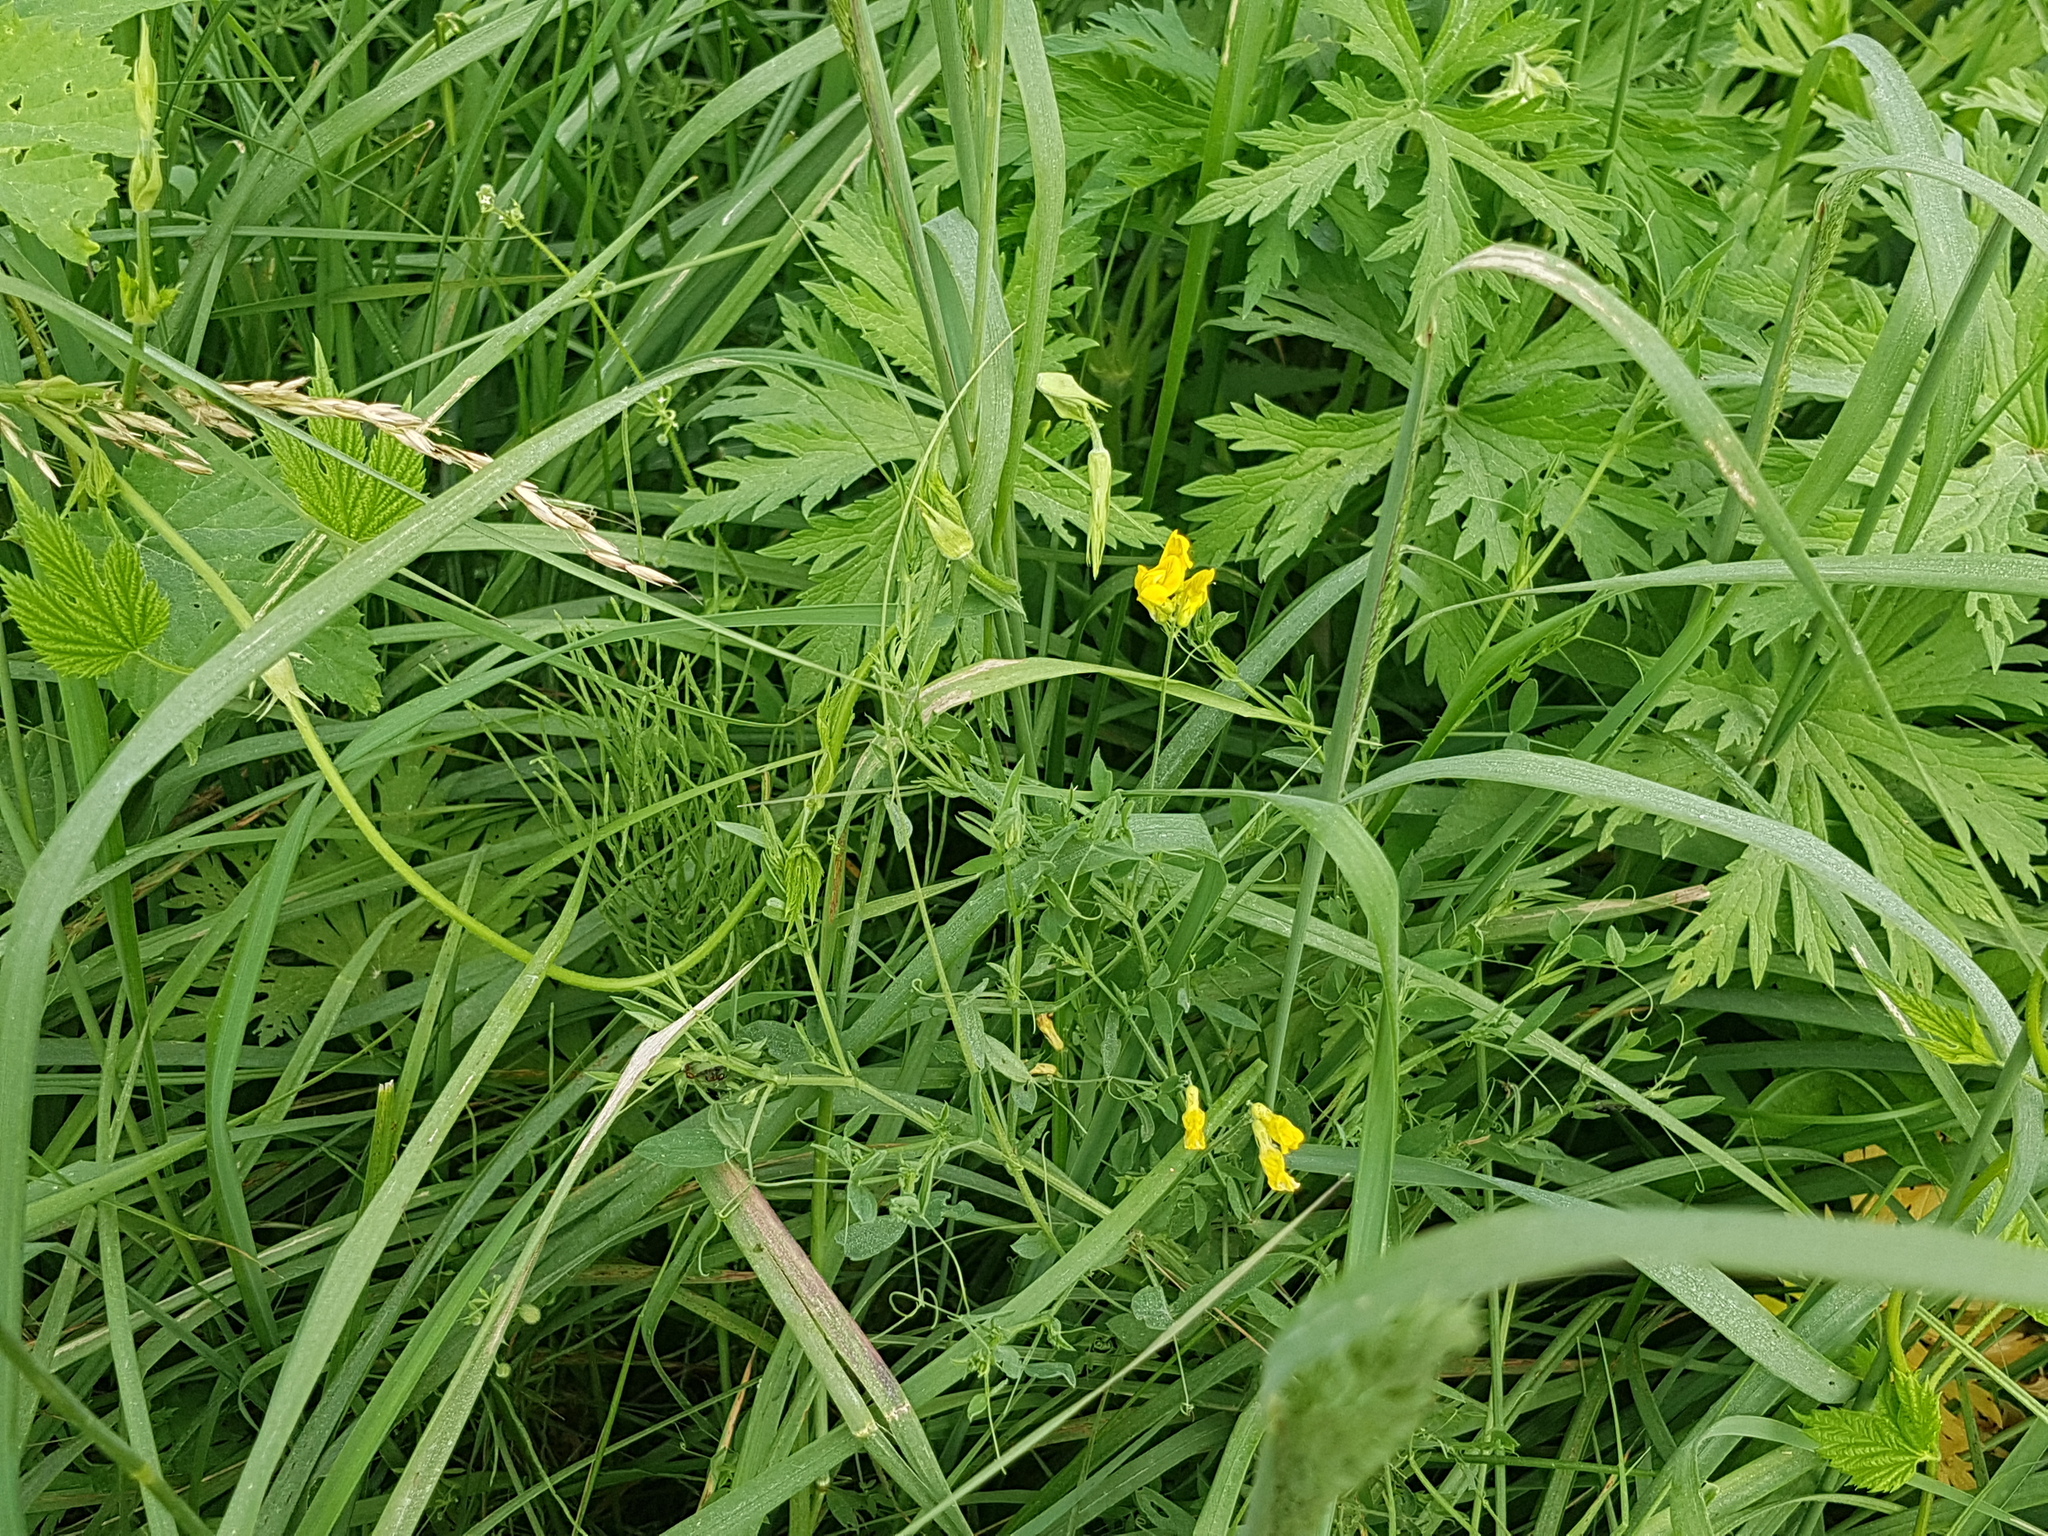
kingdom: Plantae
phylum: Tracheophyta
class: Magnoliopsida
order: Fabales
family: Fabaceae
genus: Lathyrus
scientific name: Lathyrus pratensis
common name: Meadow vetchling
